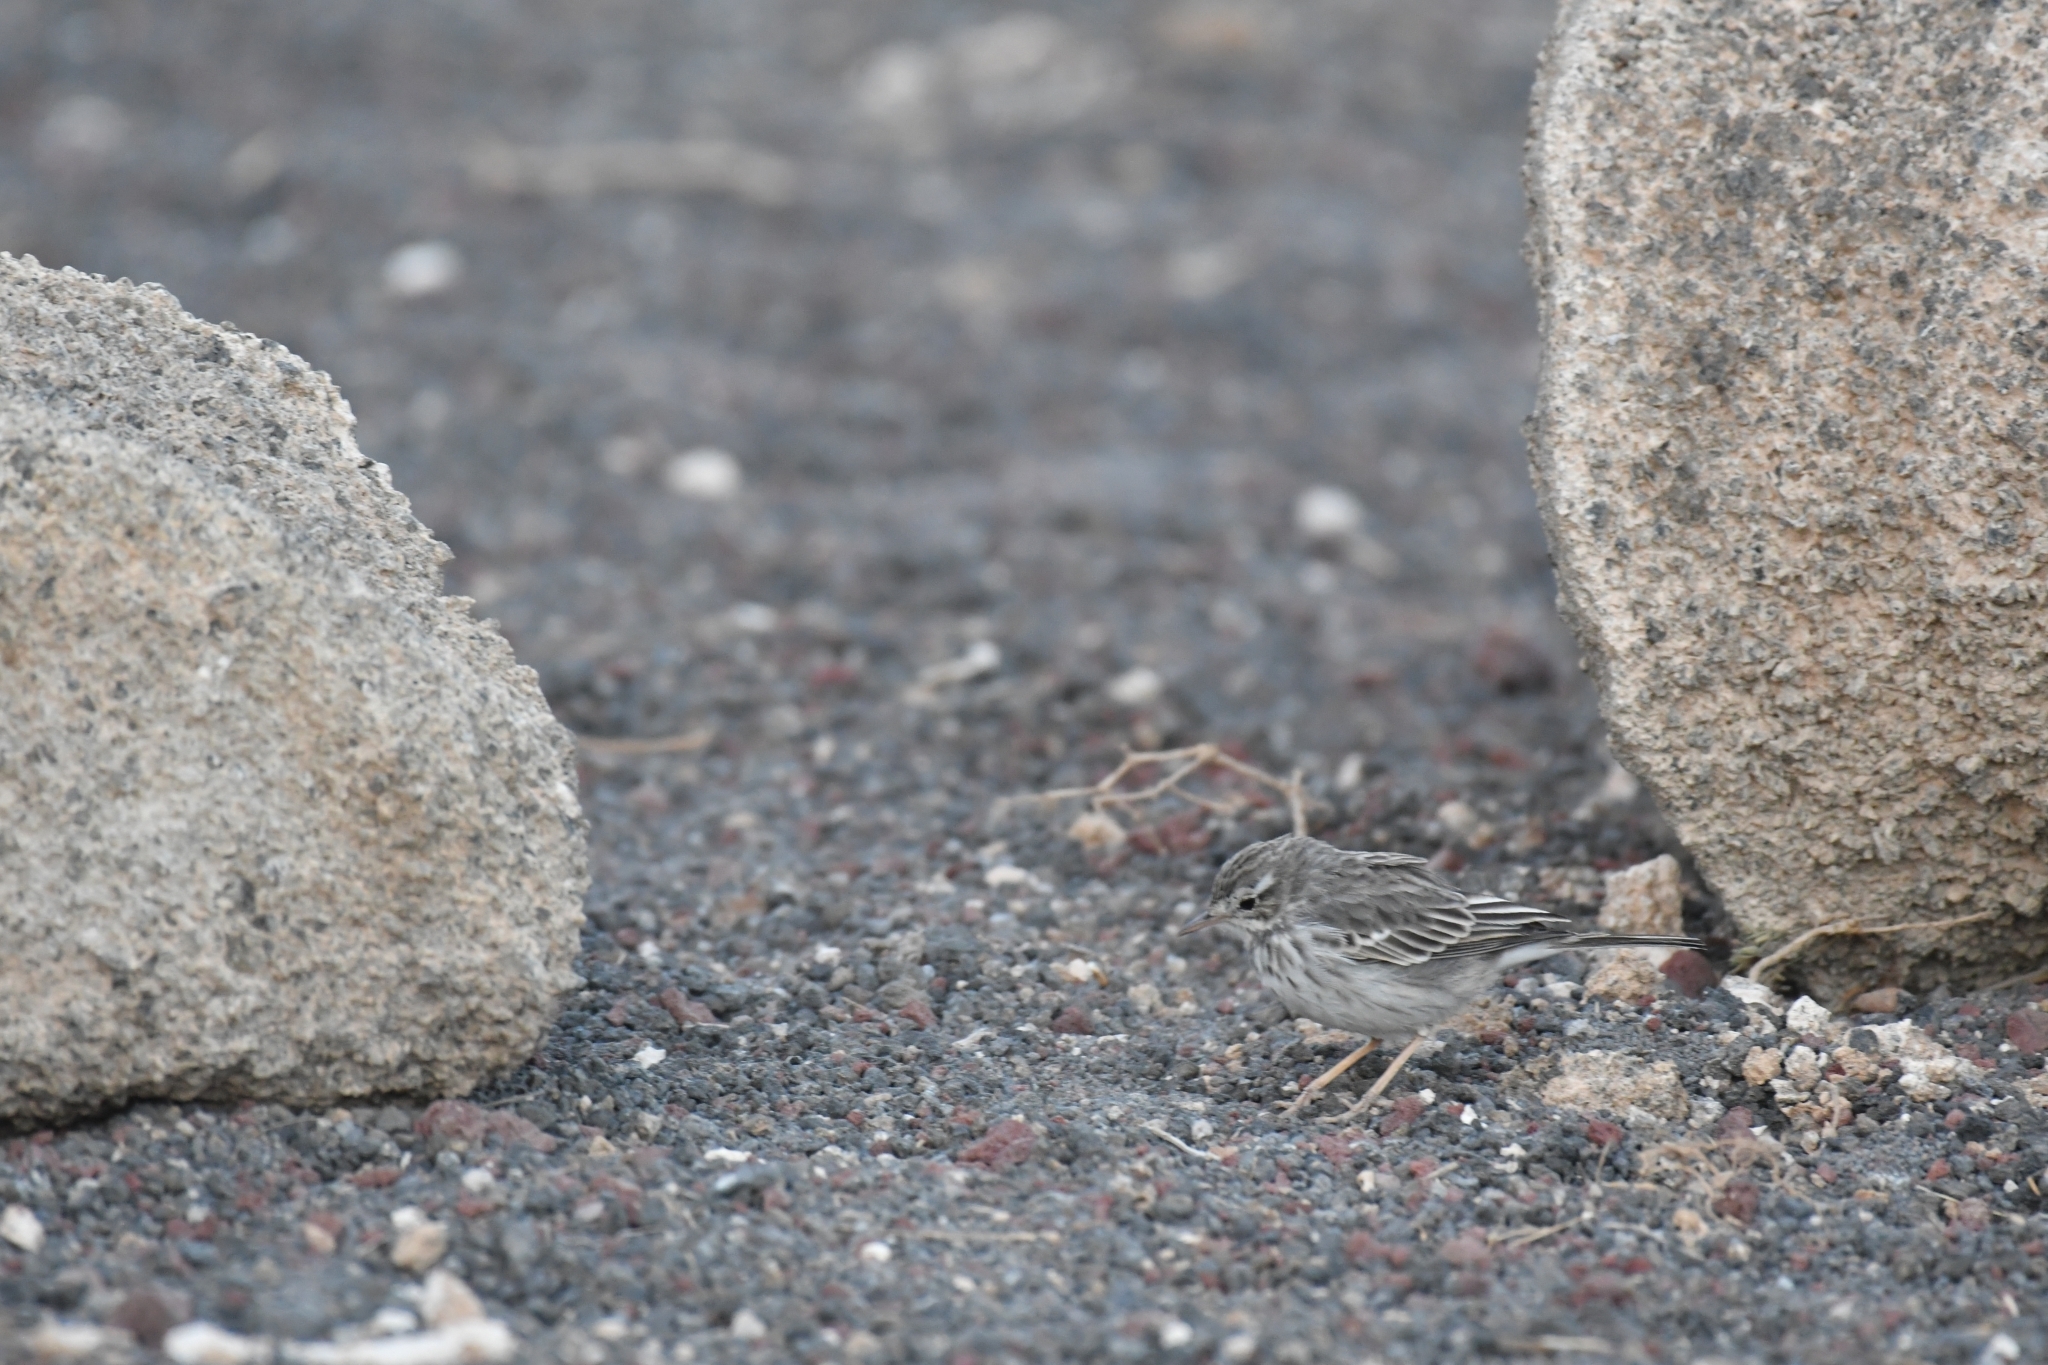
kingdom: Animalia
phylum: Chordata
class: Aves
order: Passeriformes
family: Motacillidae
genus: Anthus
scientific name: Anthus berthelotii
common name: Berthelot's pipit
